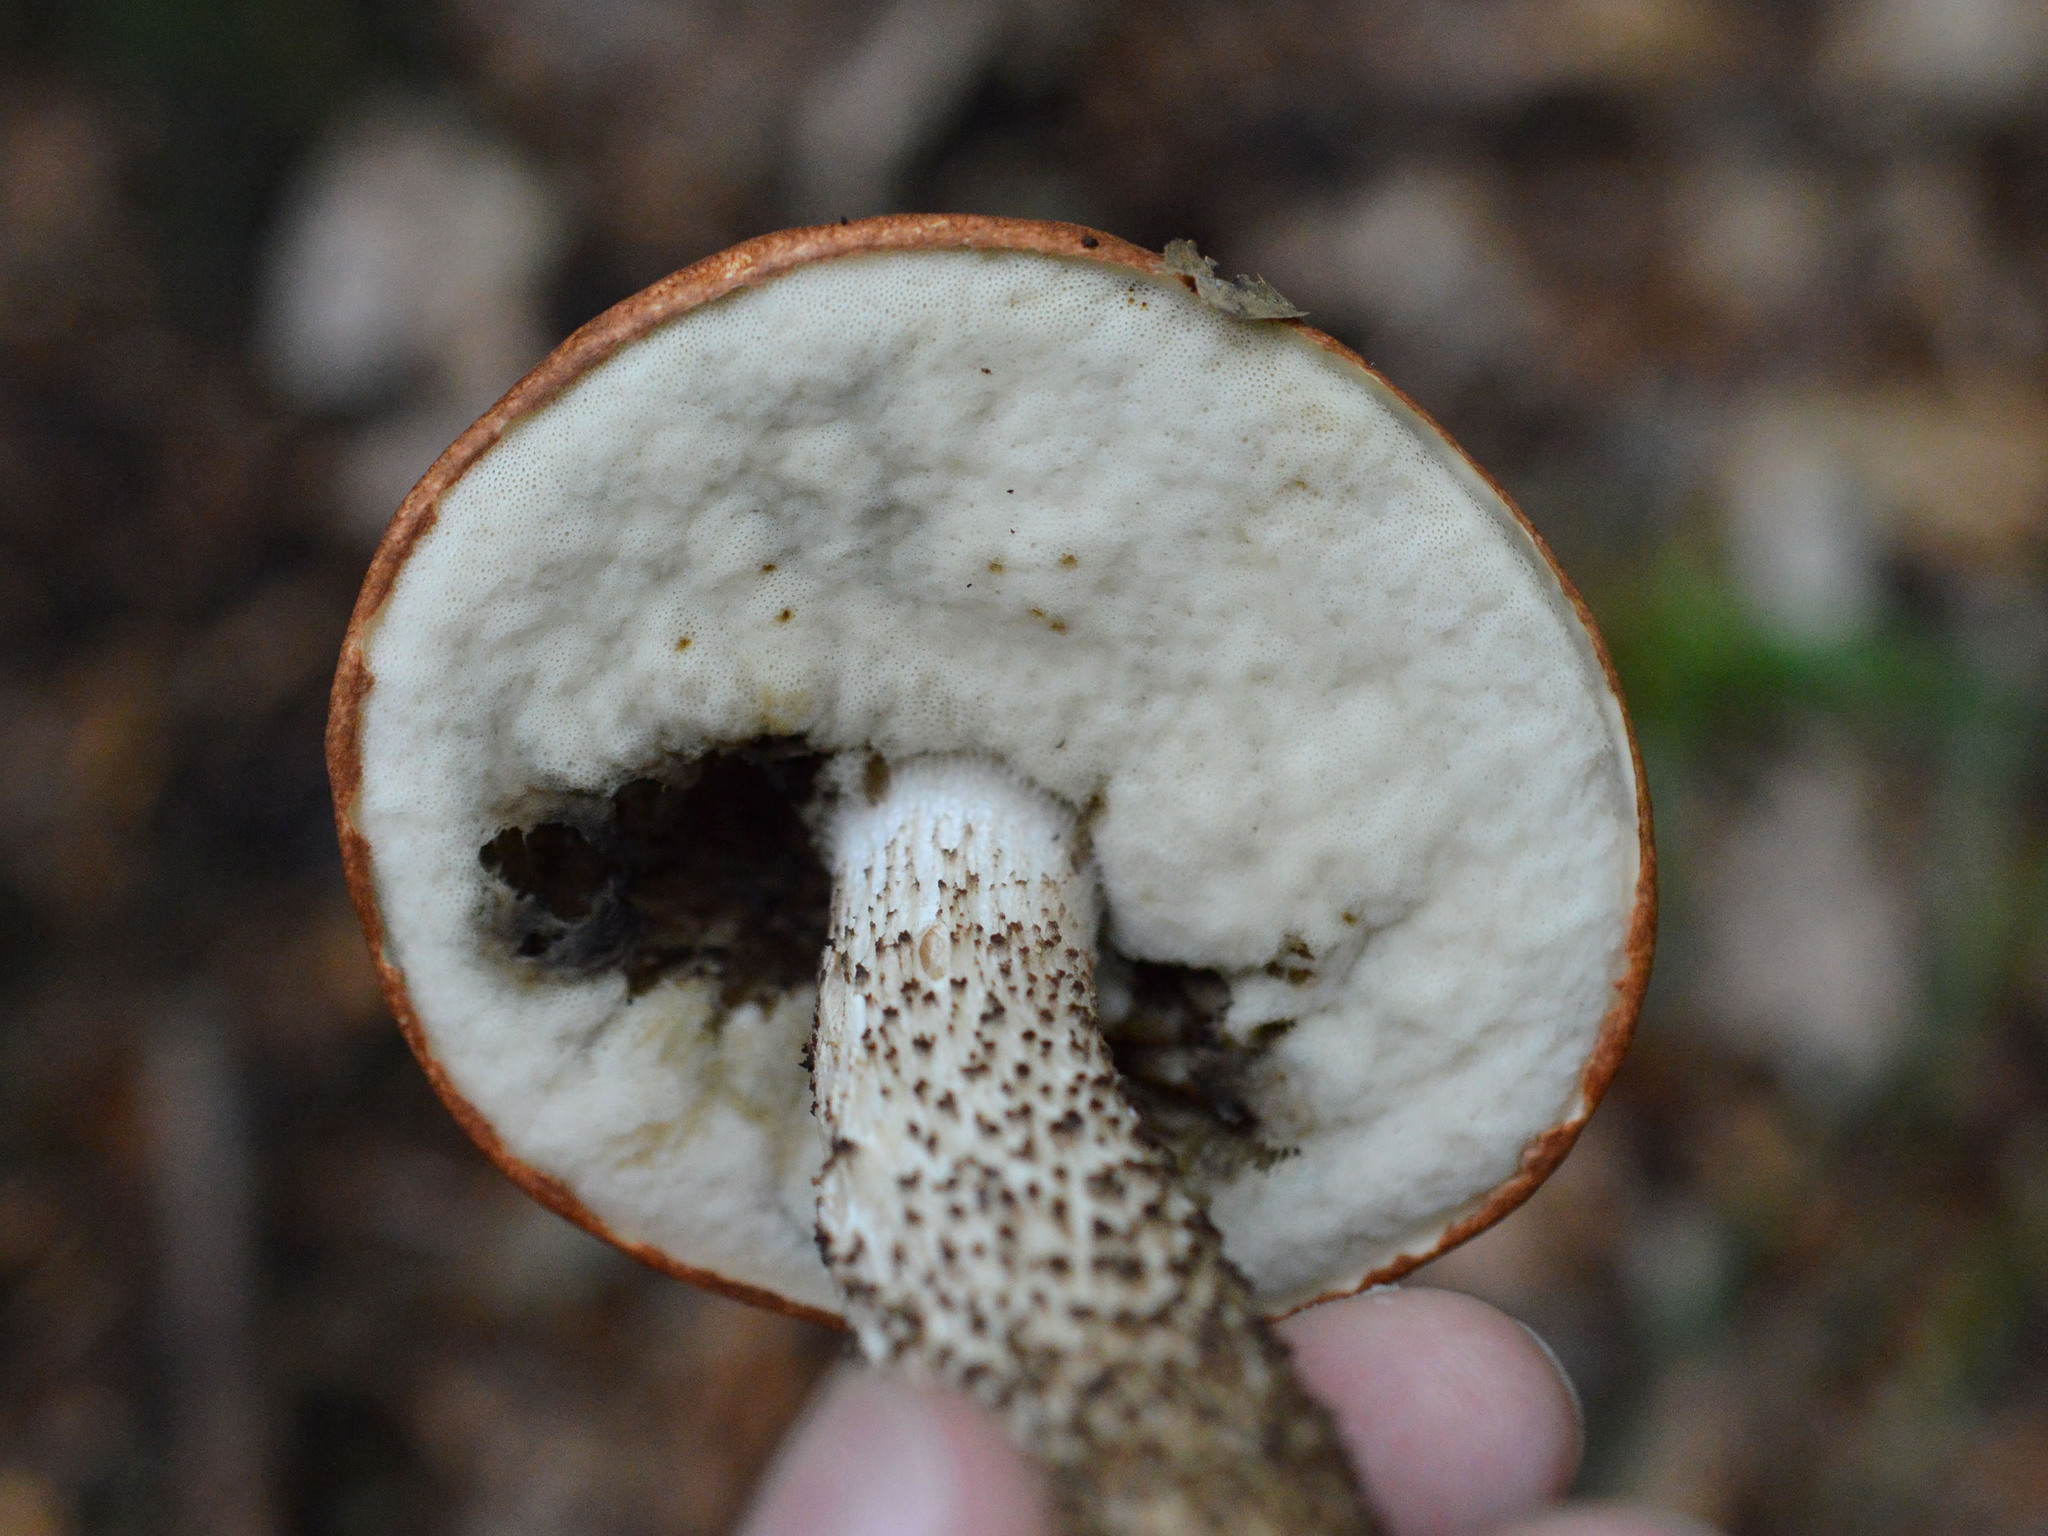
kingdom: Fungi
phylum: Basidiomycota
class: Agaricomycetes
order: Boletales
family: Boletaceae
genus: Leccinum
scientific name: Leccinum aurantiacum
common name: Orange bolete
